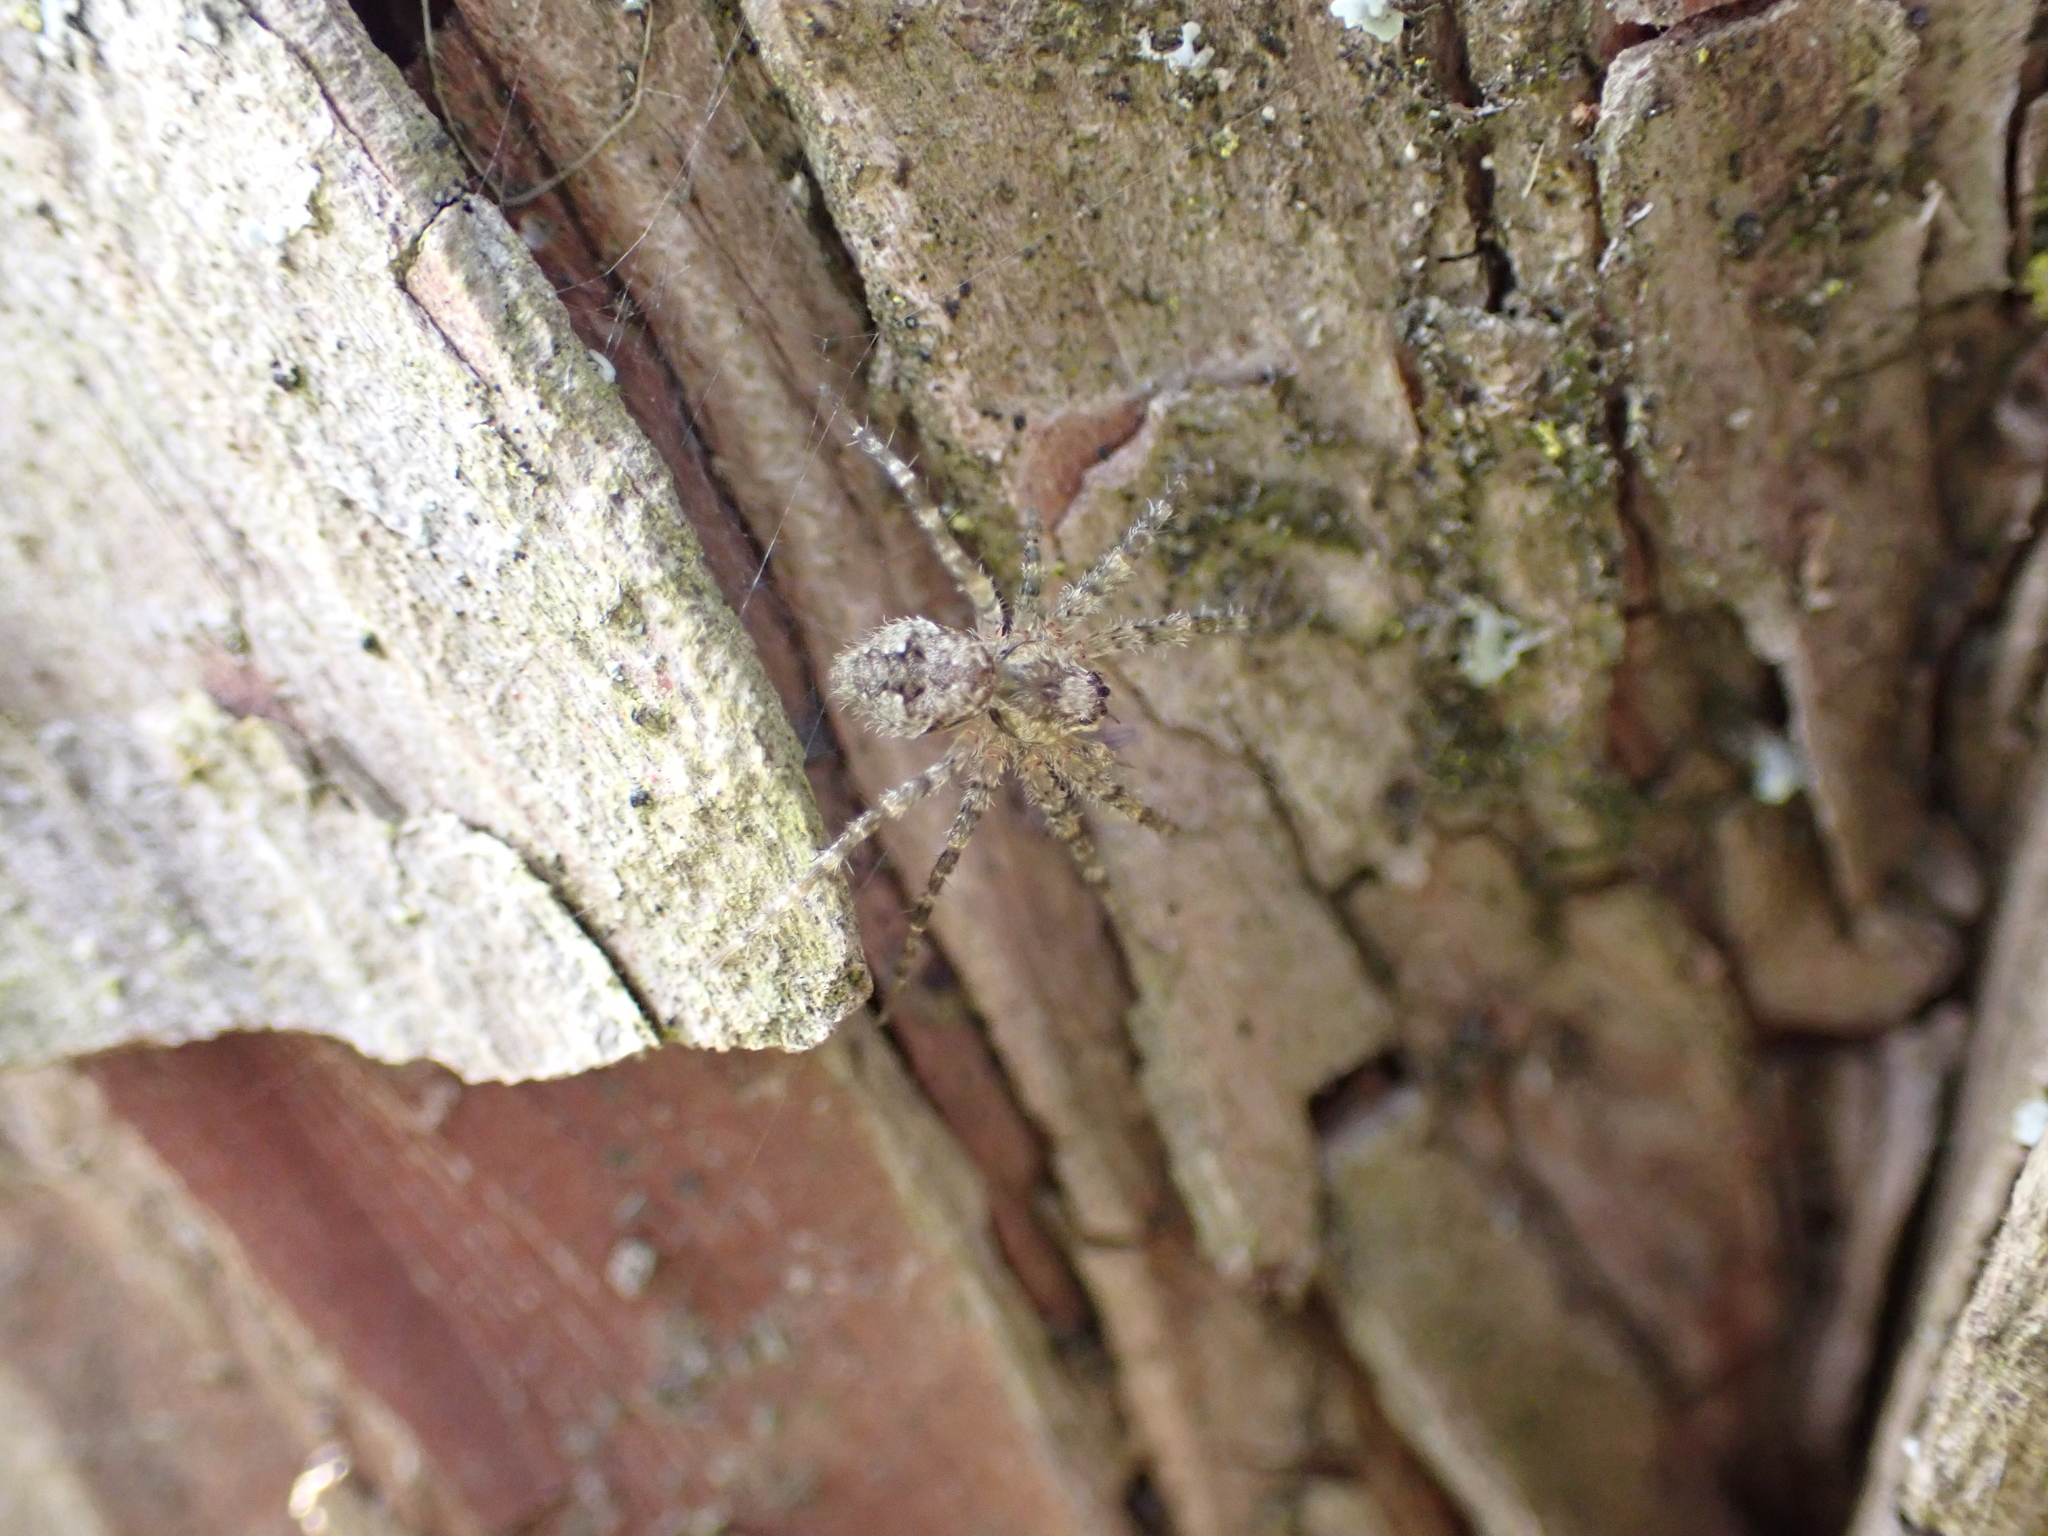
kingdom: Animalia
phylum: Arthropoda
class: Arachnida
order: Araneae
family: Pisauridae
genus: Dolomedes
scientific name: Dolomedes albineus
